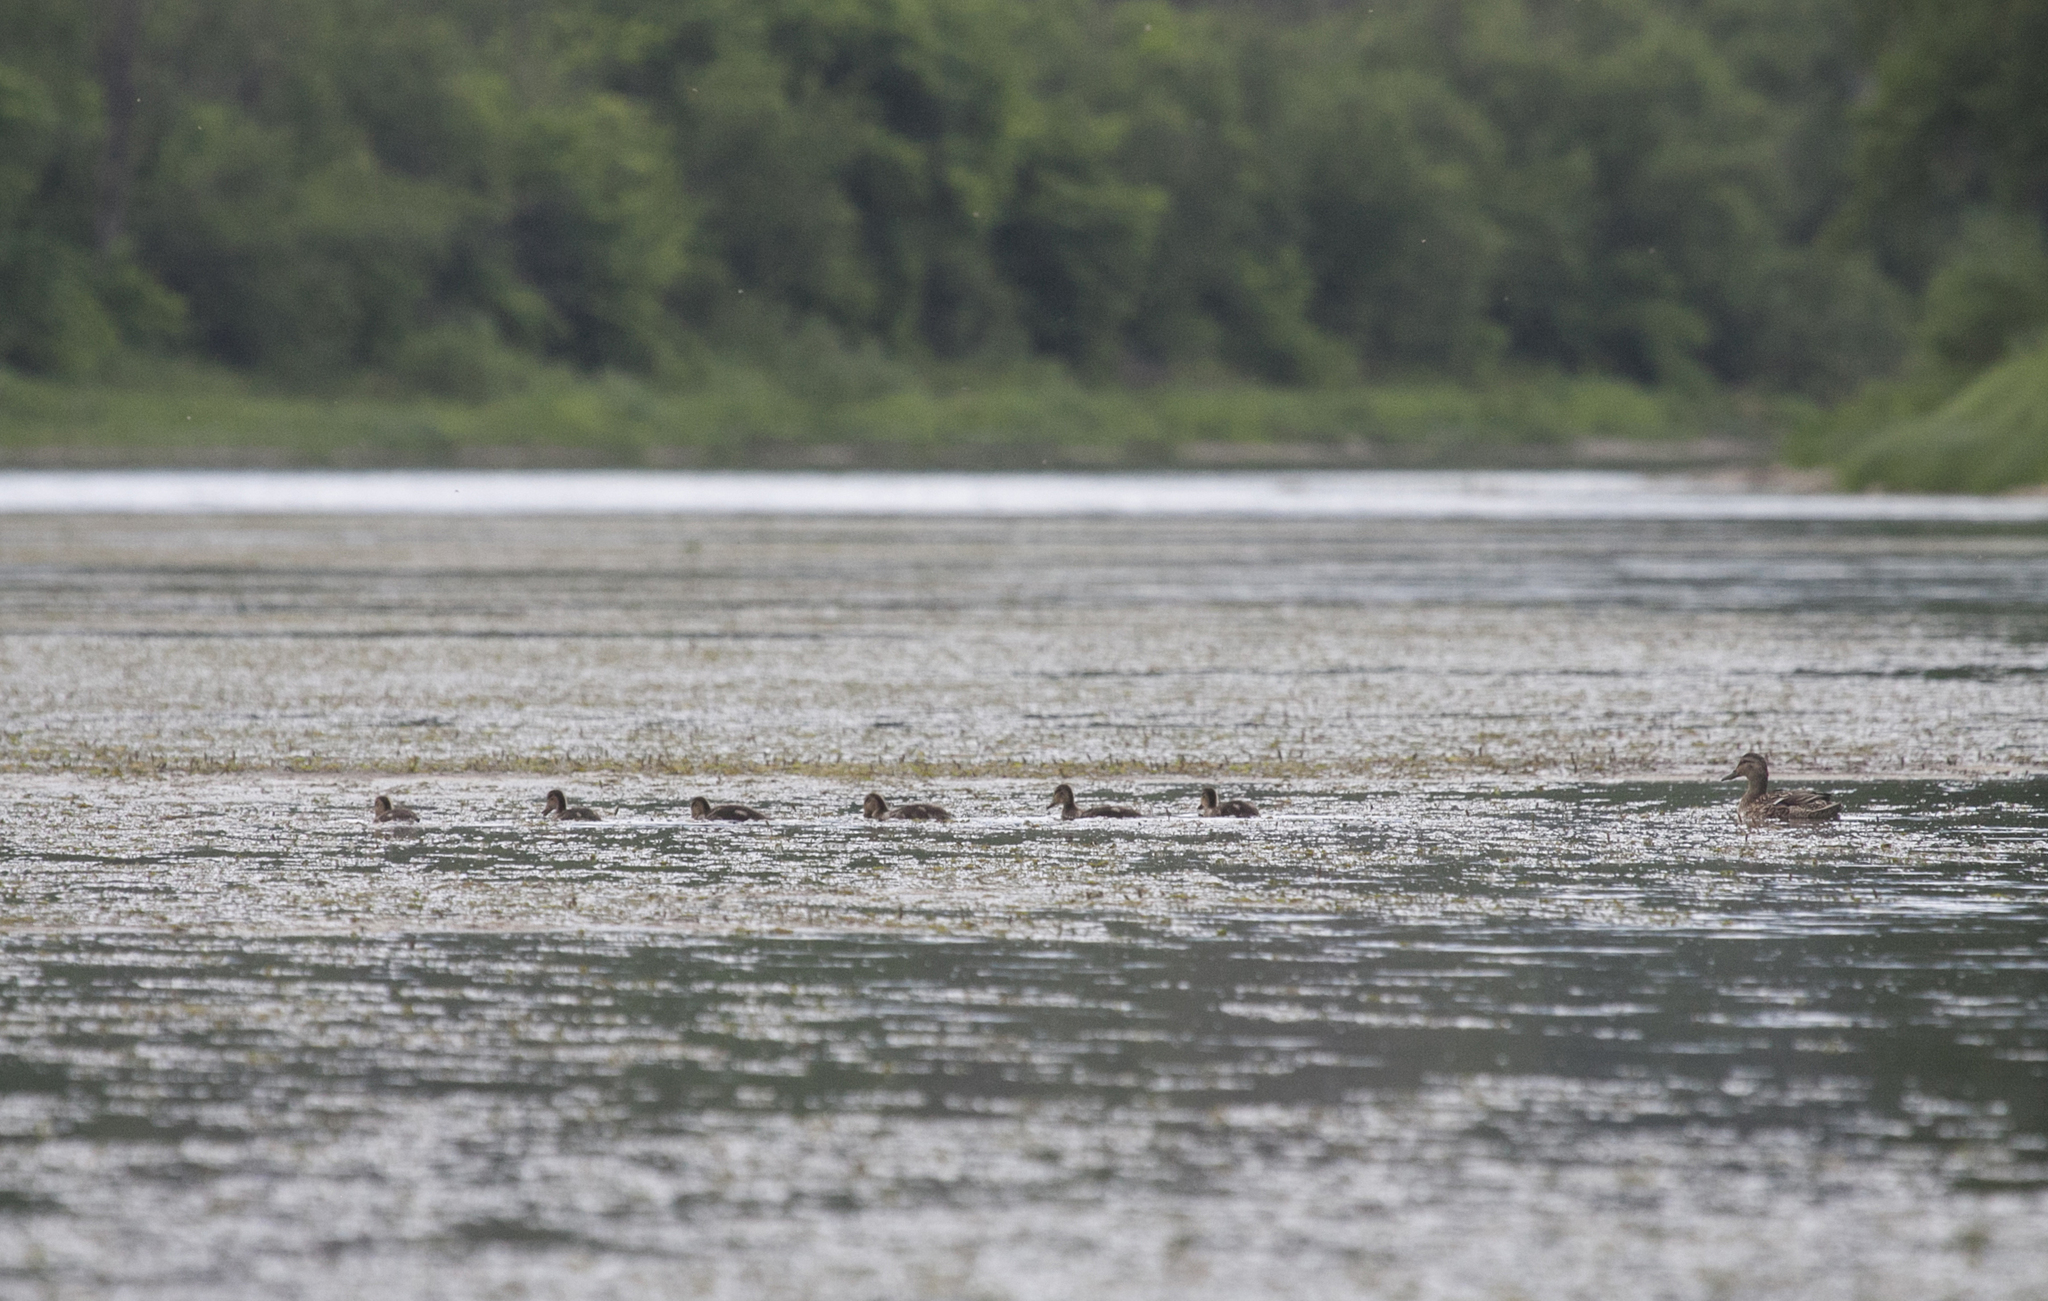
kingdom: Animalia
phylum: Chordata
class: Aves
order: Anseriformes
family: Anatidae
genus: Anas
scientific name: Anas platyrhynchos
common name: Mallard
